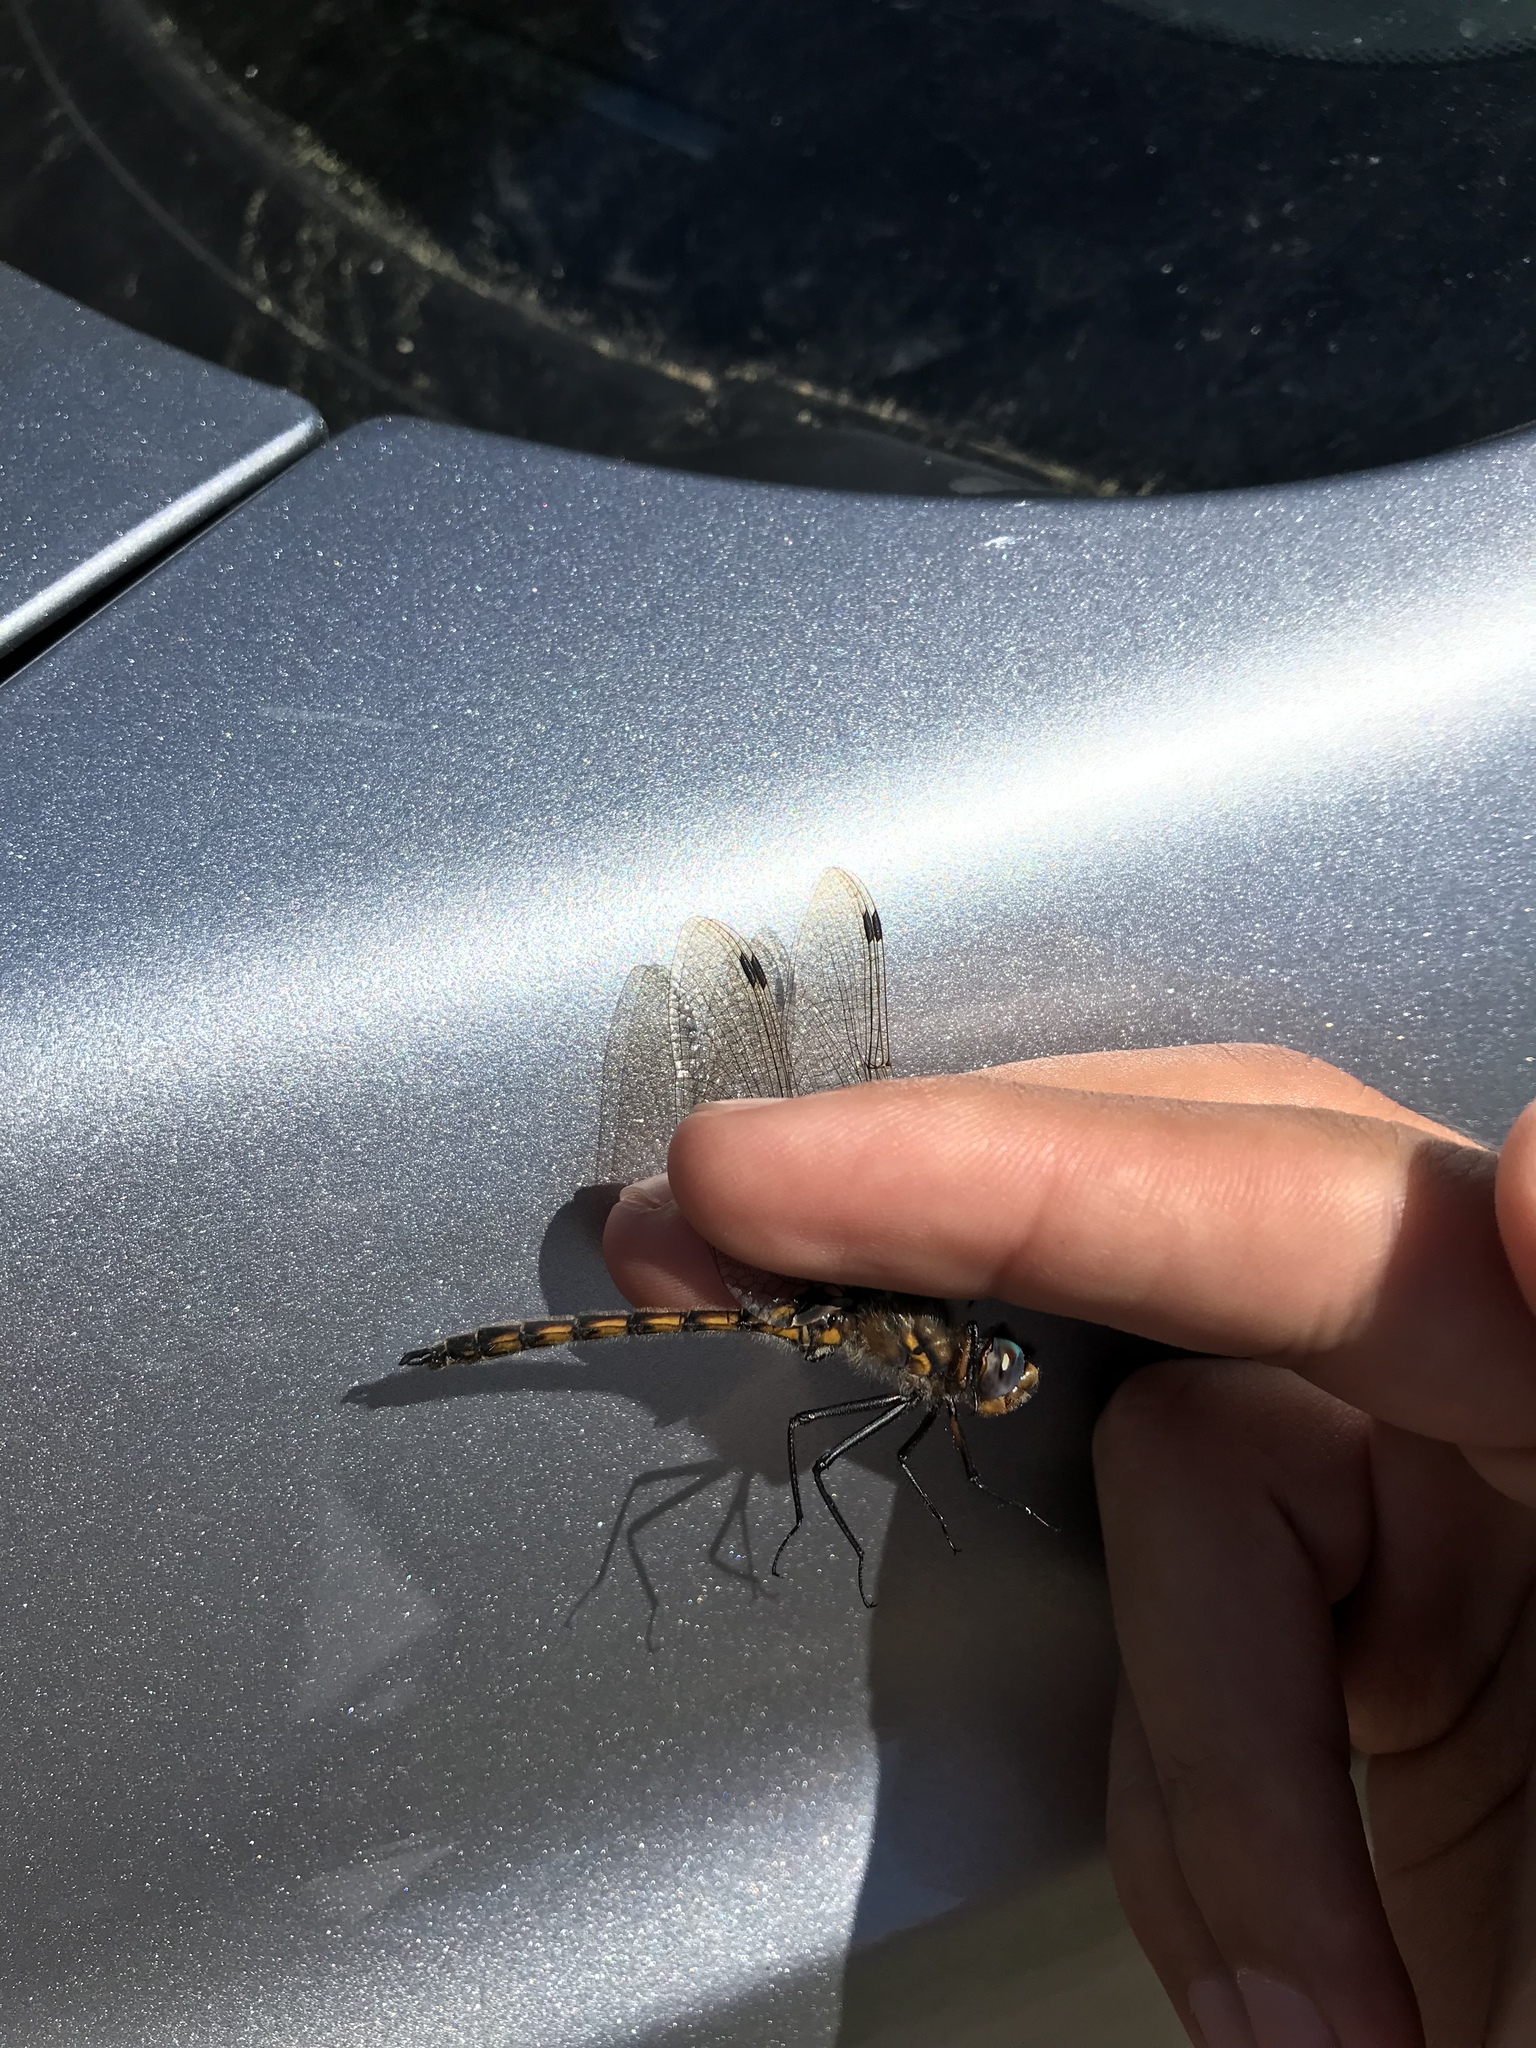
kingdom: Animalia
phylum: Arthropoda
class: Insecta
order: Odonata
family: Corduliidae
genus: Epitheca
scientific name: Epitheca canis
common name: Beaverpond baskettail
